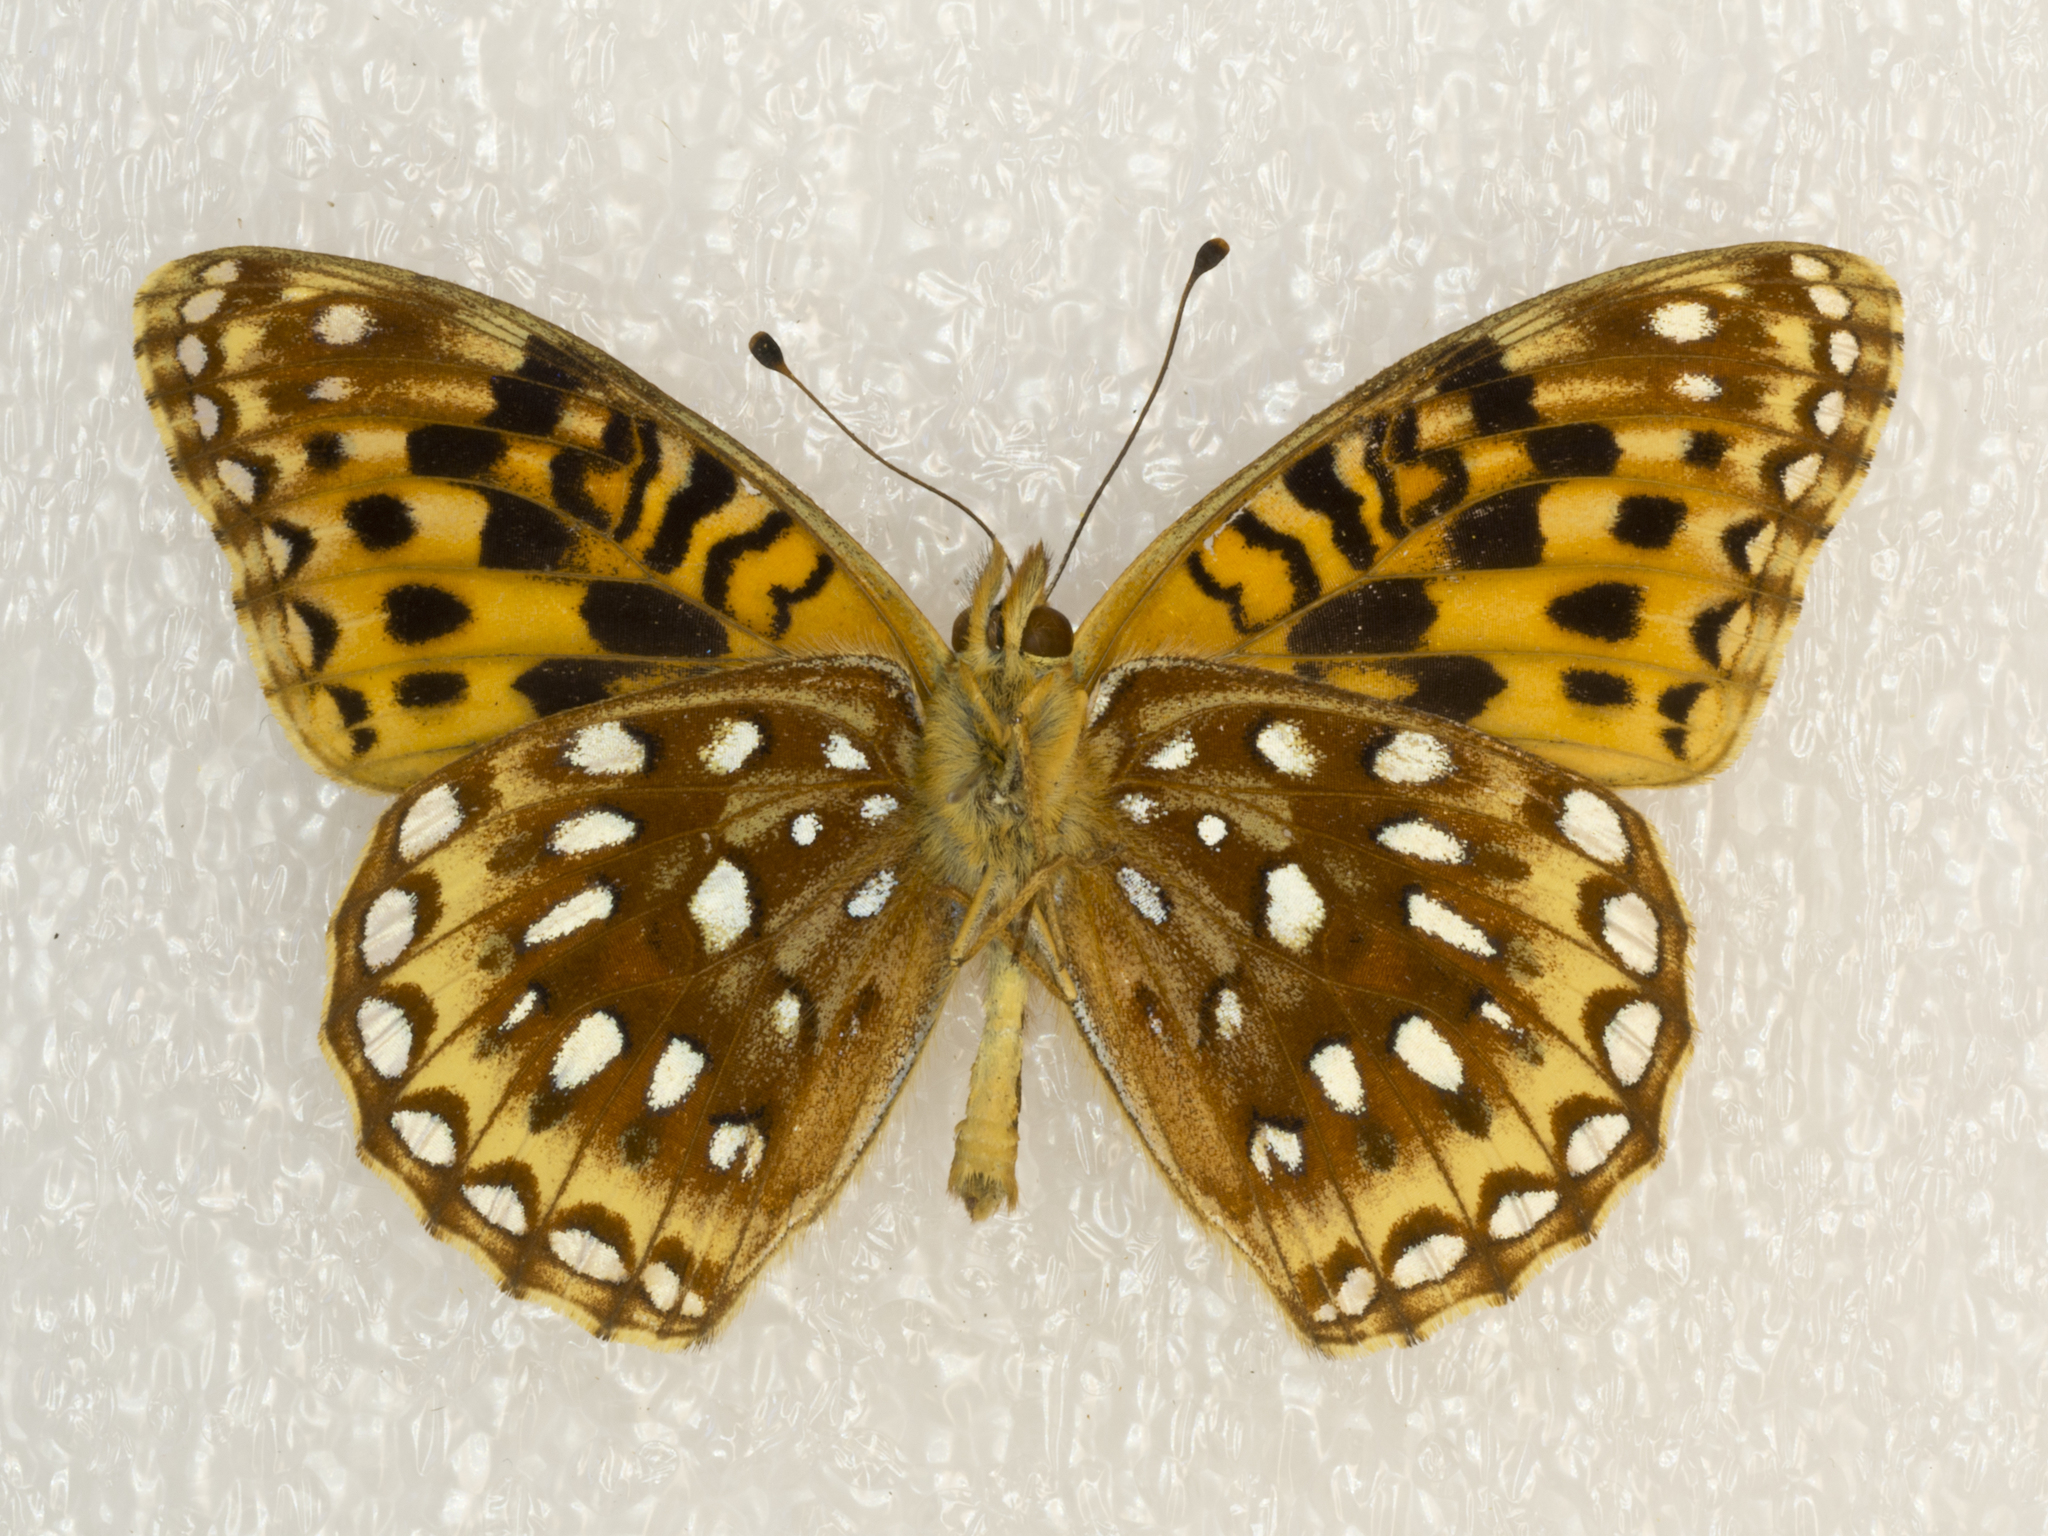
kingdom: Animalia
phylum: Arthropoda
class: Insecta
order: Lepidoptera
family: Nymphalidae
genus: Speyeria
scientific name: Speyeria atlantis
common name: Atlantis fritillary
